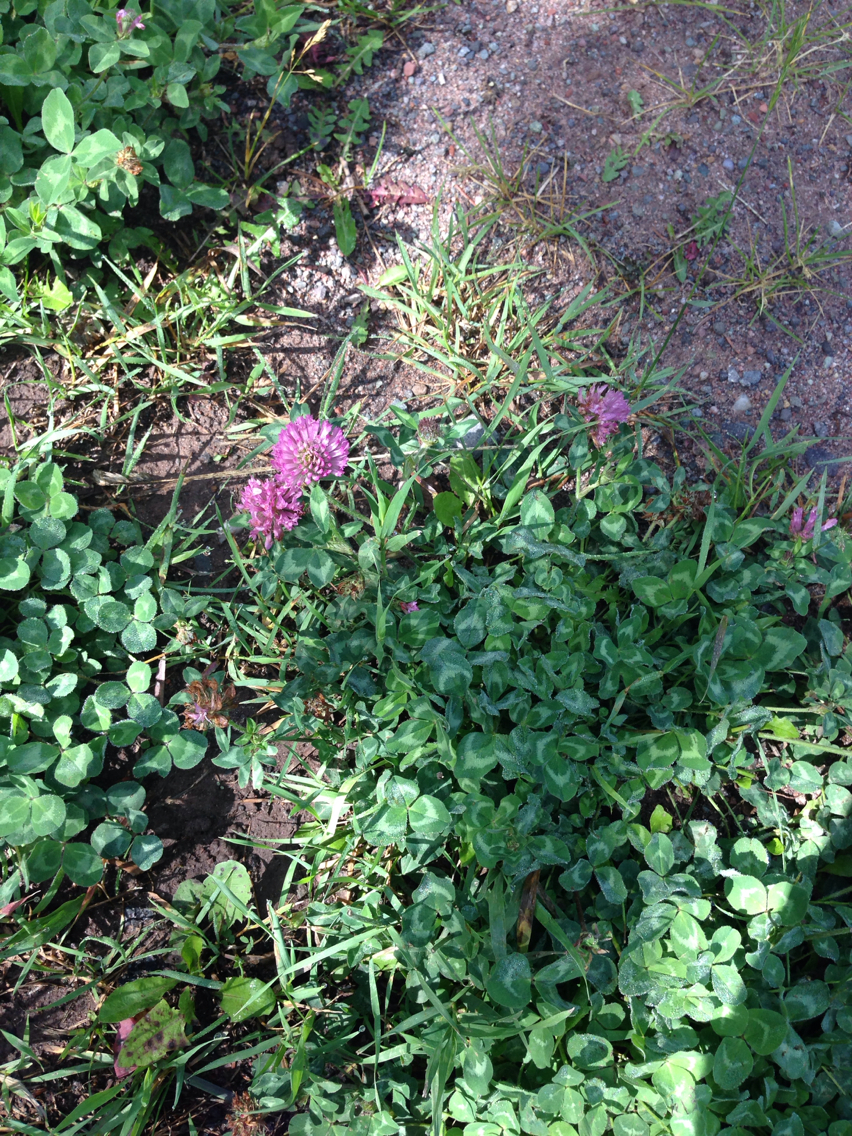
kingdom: Plantae
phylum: Tracheophyta
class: Magnoliopsida
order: Fabales
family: Fabaceae
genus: Trifolium
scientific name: Trifolium pratense
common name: Red clover
